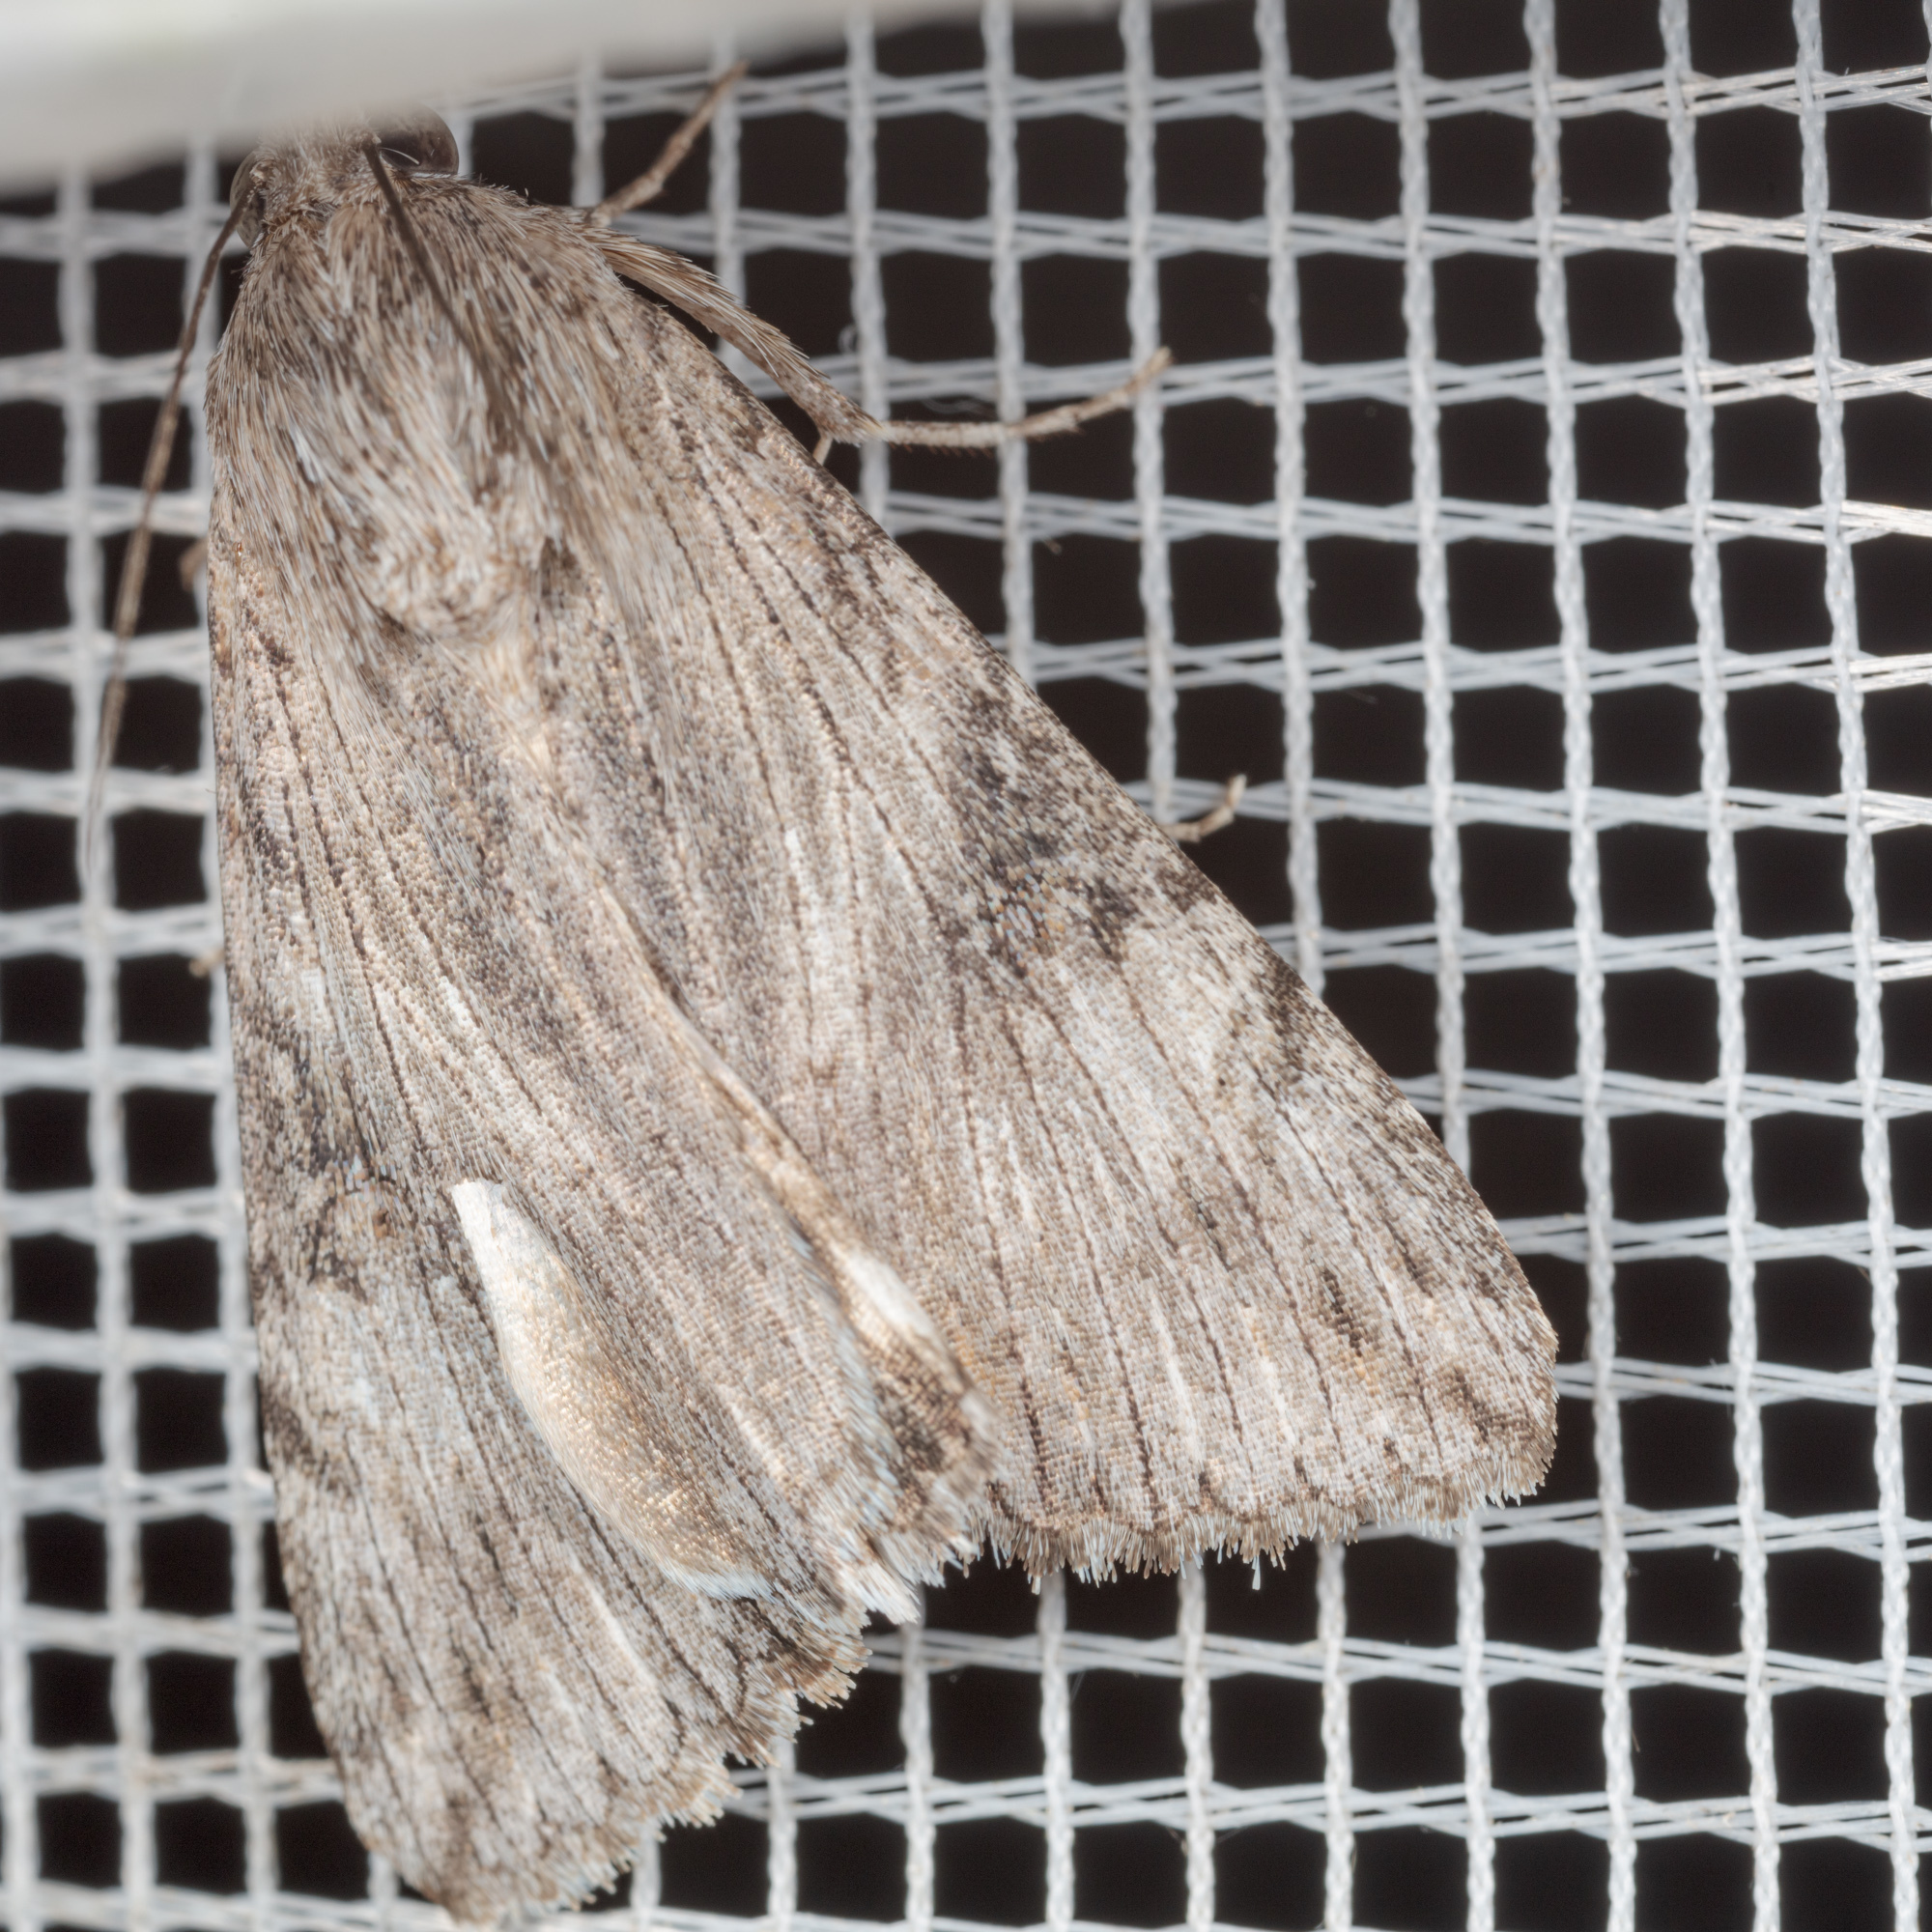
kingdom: Animalia
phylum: Arthropoda
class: Insecta
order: Lepidoptera
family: Erebidae
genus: Melipotis
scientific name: Melipotis jucunda
